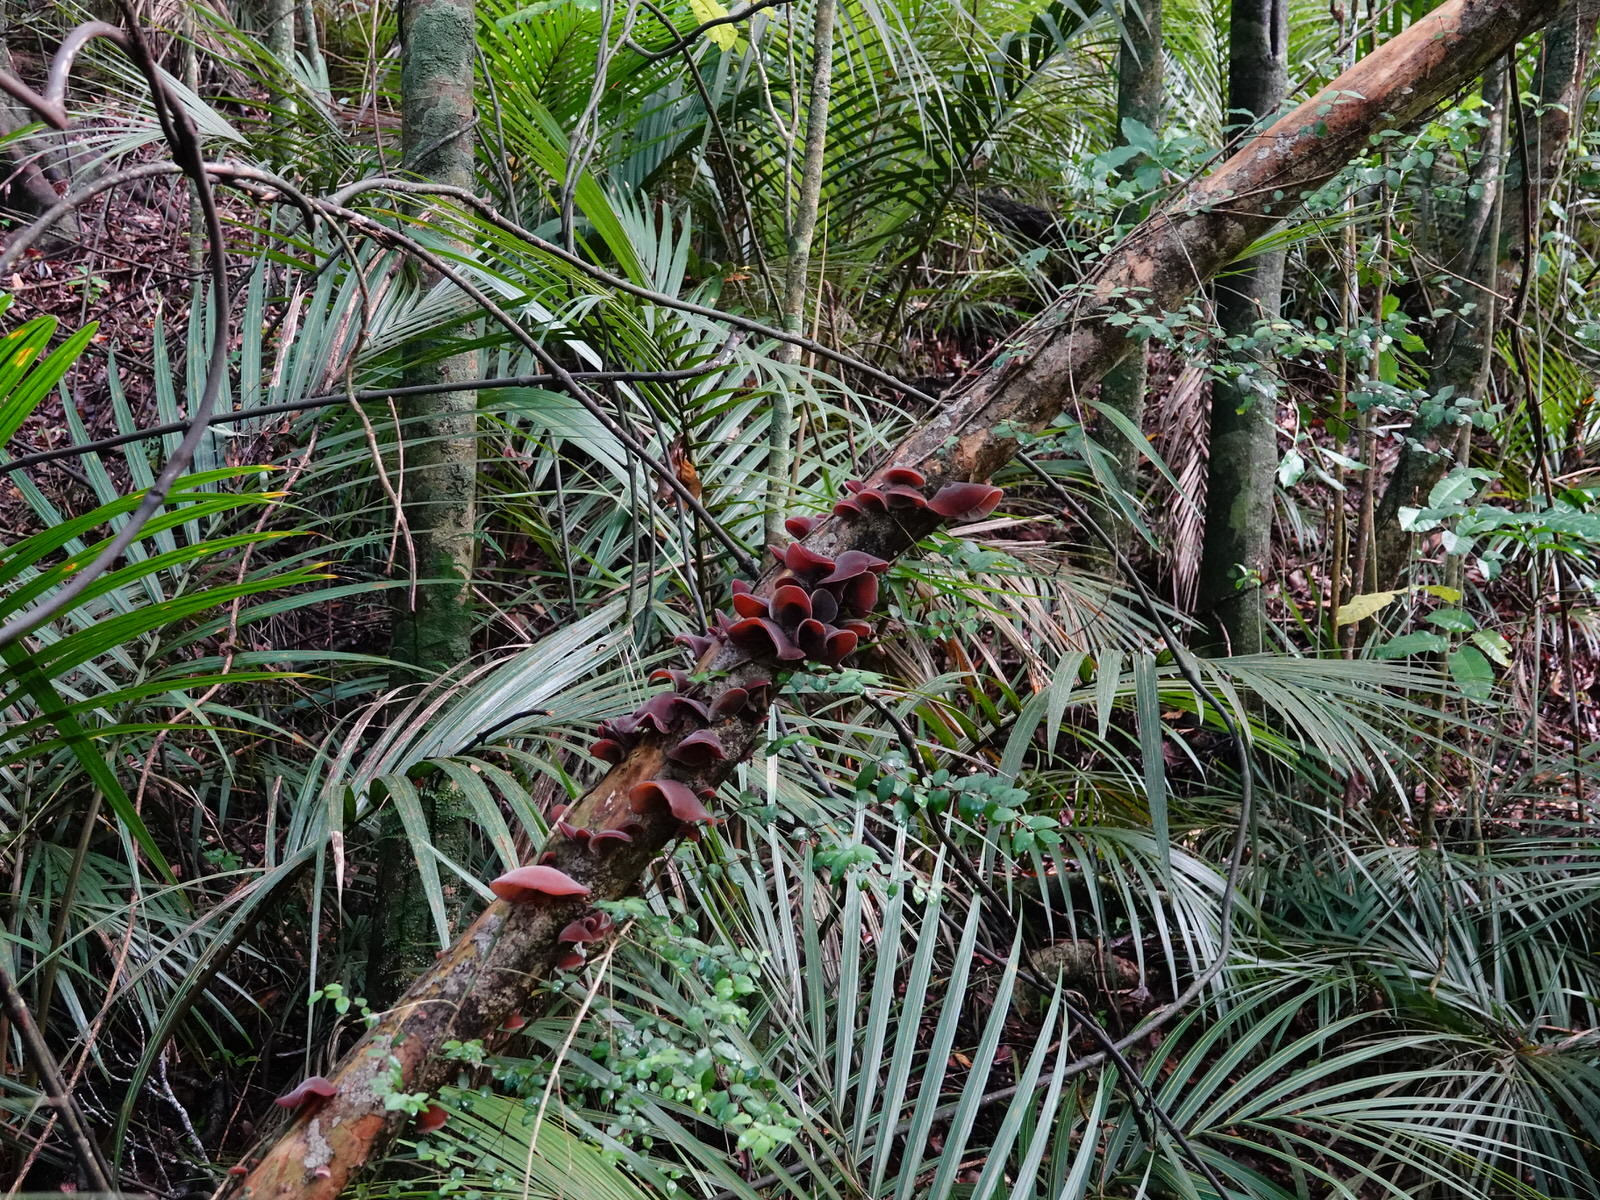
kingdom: Fungi
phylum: Basidiomycota
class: Agaricomycetes
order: Auriculariales
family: Auriculariaceae
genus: Auricularia
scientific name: Auricularia cornea
